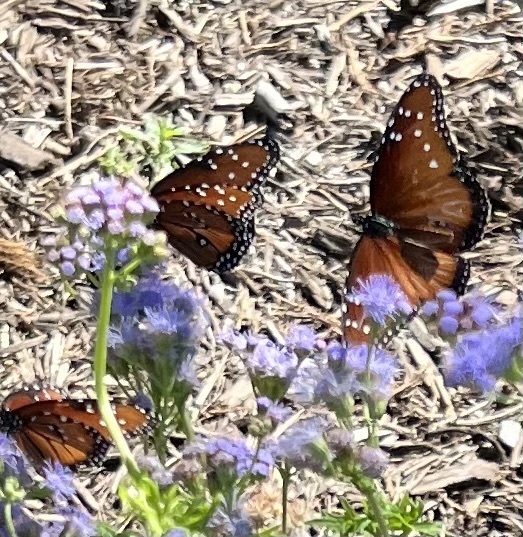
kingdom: Animalia
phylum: Arthropoda
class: Insecta
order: Lepidoptera
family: Nymphalidae
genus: Danaus
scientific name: Danaus gilippus
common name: Queen
